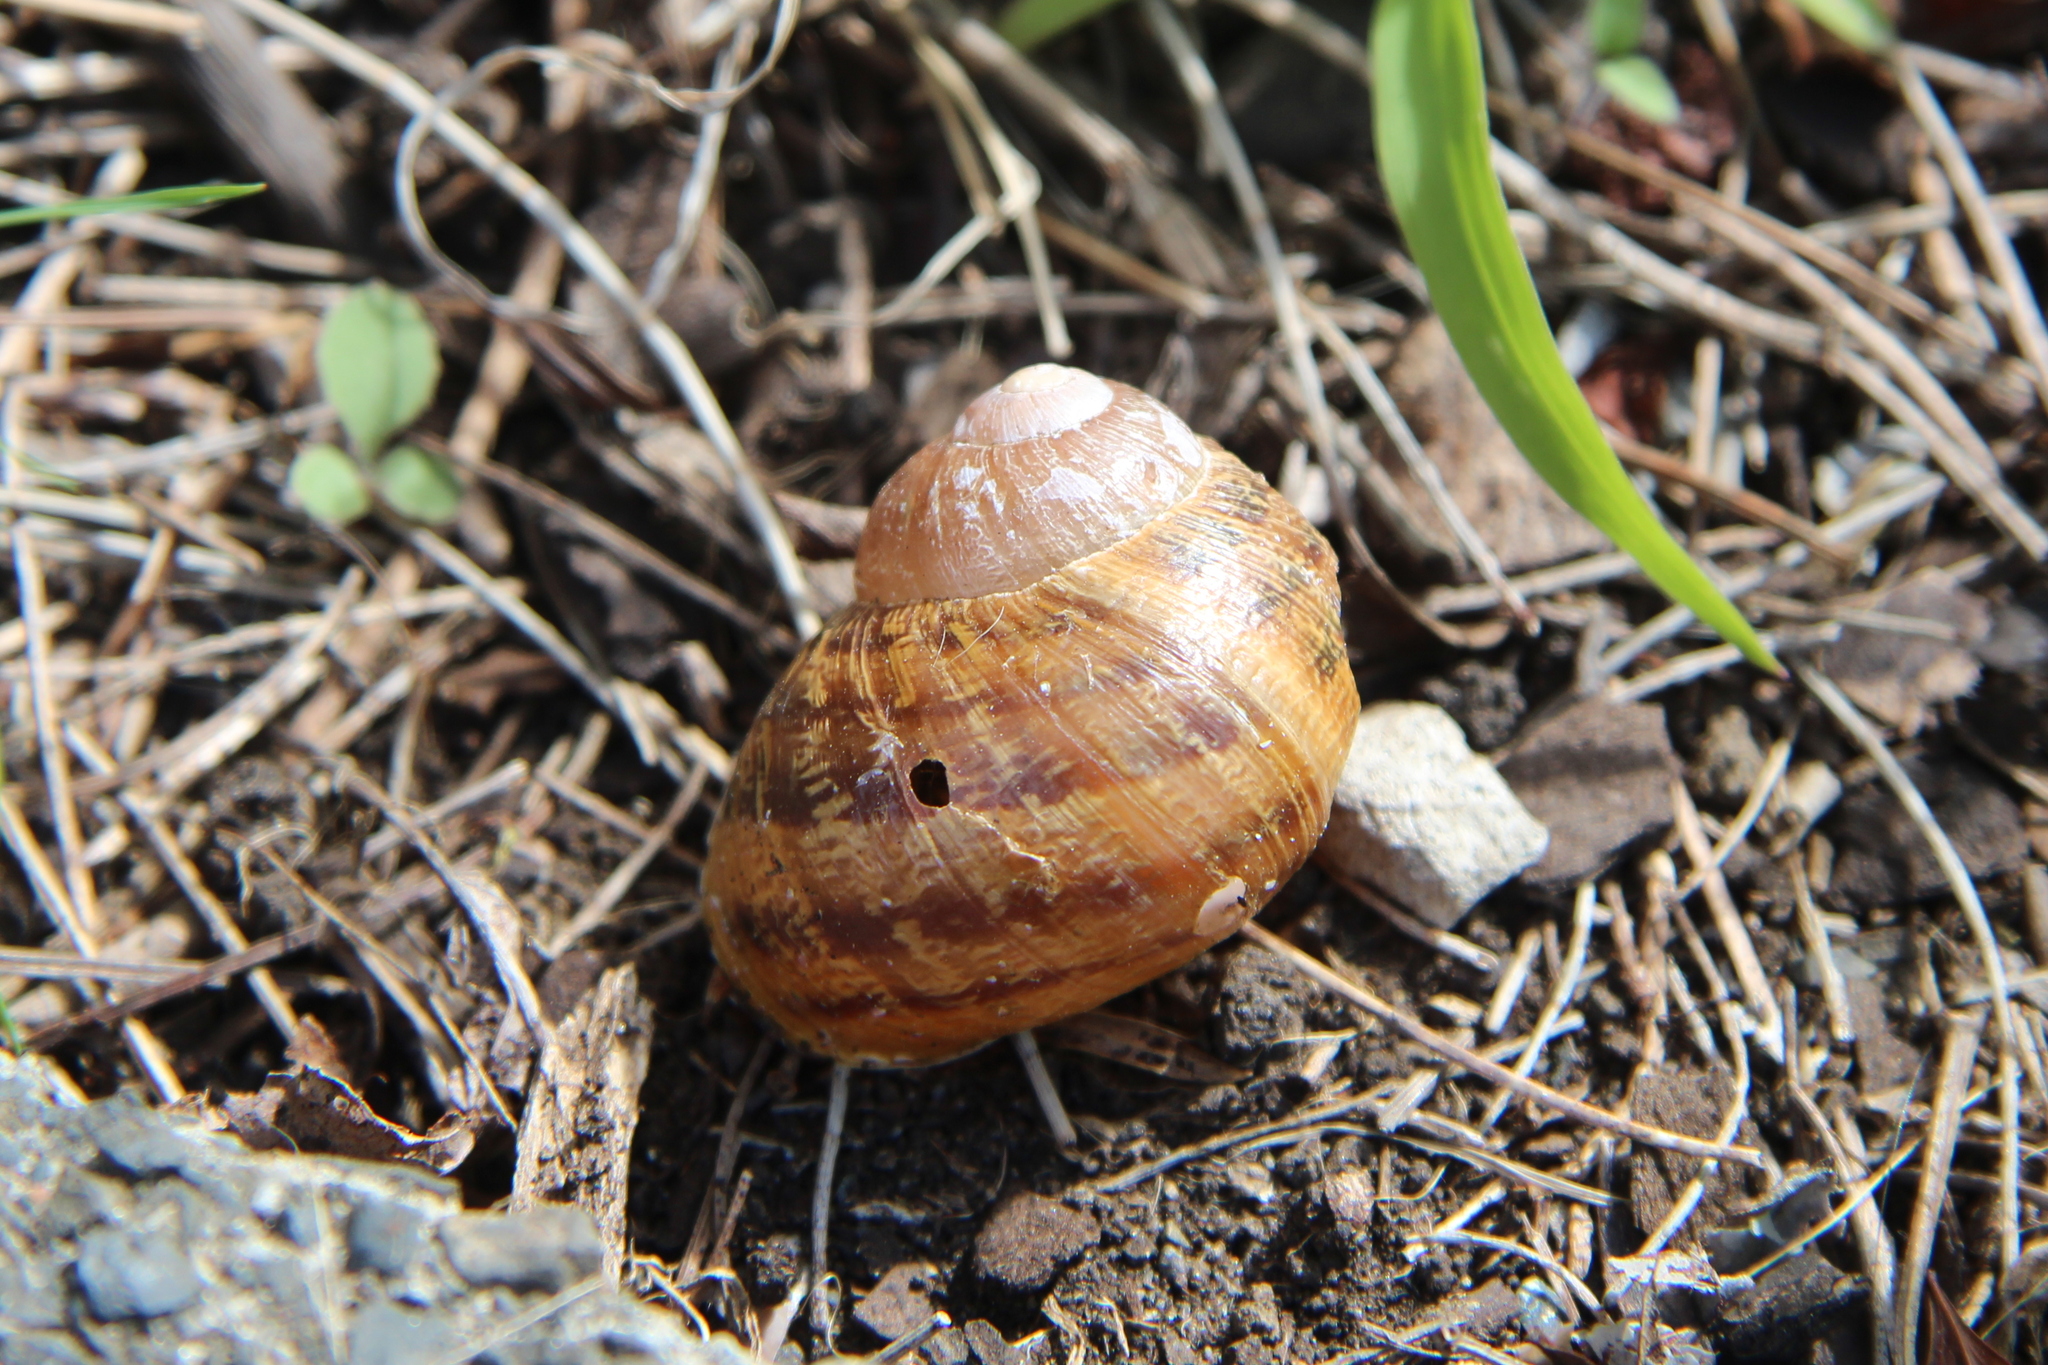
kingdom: Animalia
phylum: Mollusca
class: Gastropoda
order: Stylommatophora
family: Helicidae
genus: Cornu
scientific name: Cornu aspersum
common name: Brown garden snail
